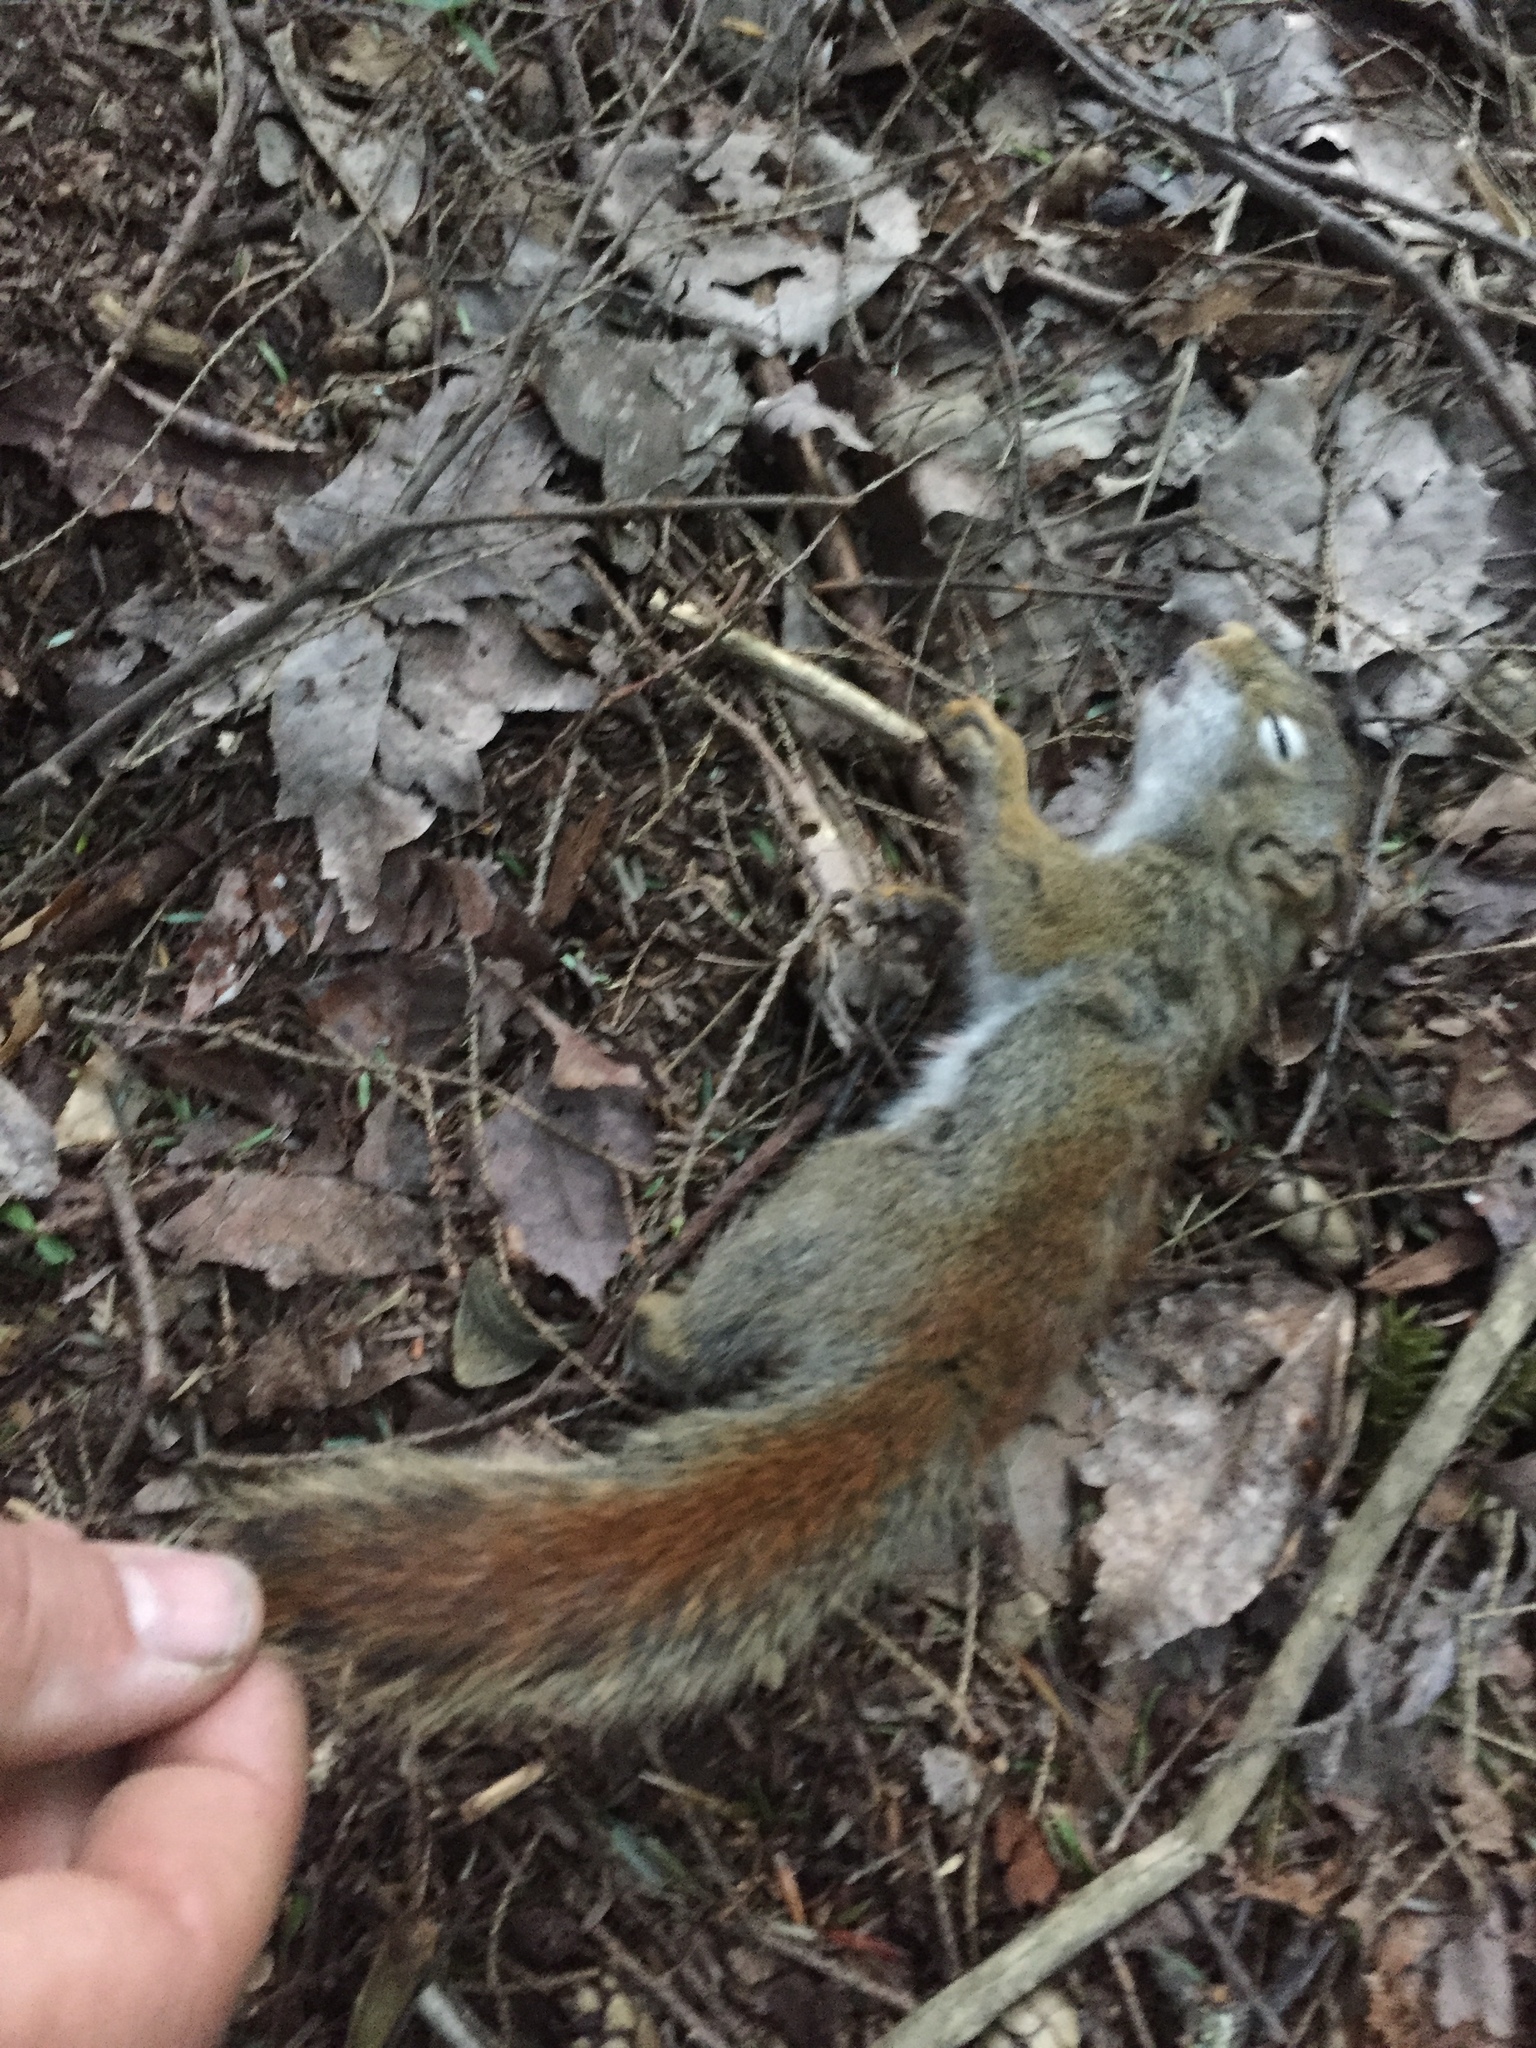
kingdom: Animalia
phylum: Chordata
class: Mammalia
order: Rodentia
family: Sciuridae
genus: Tamiasciurus
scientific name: Tamiasciurus hudsonicus
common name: Red squirrel
